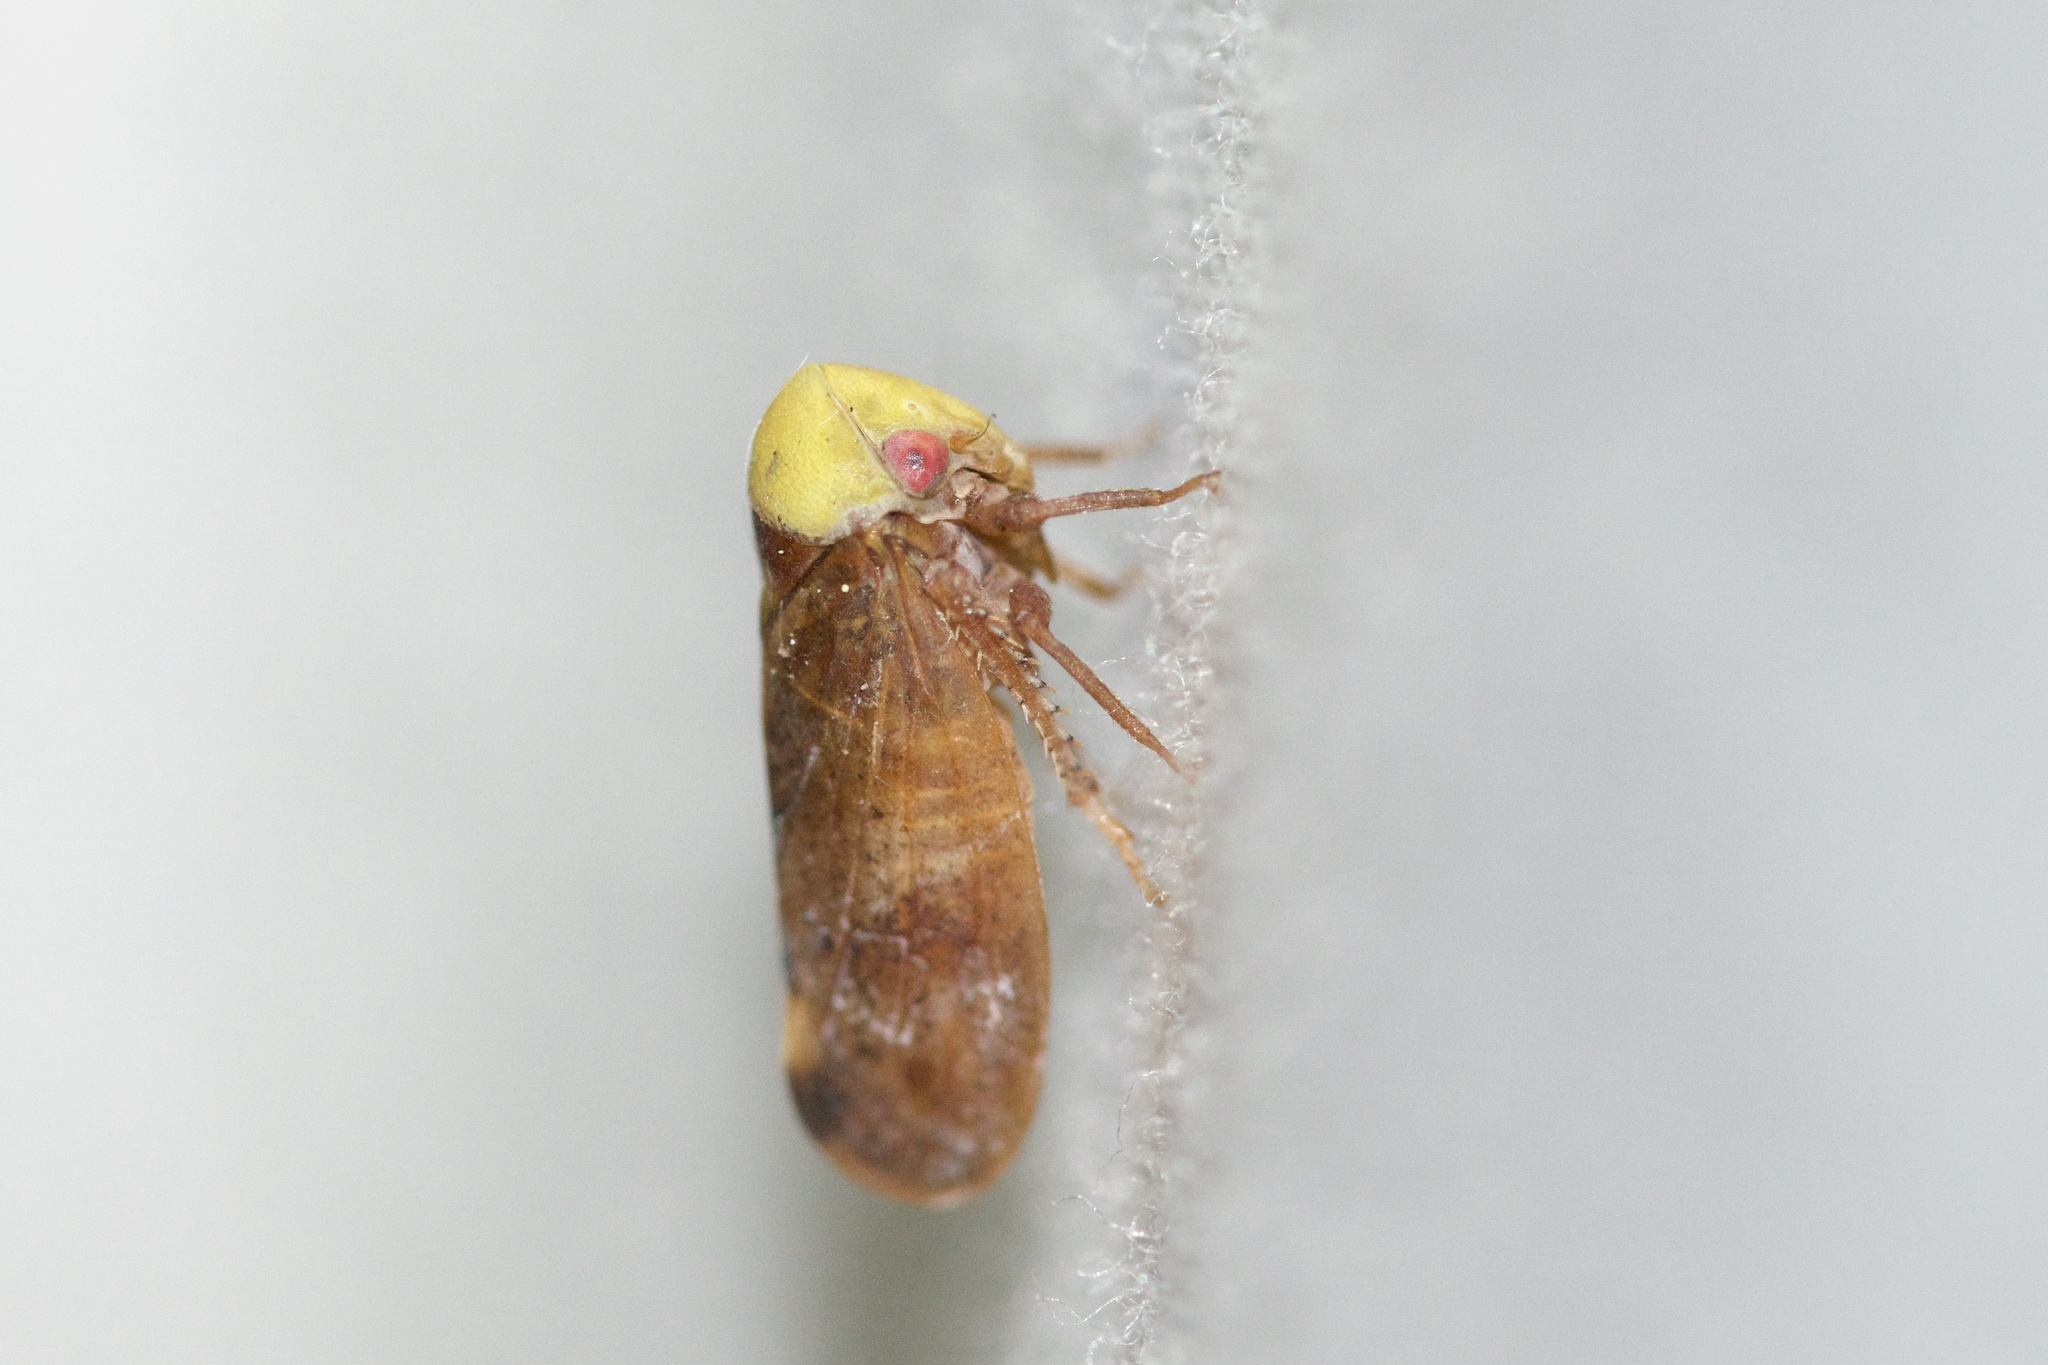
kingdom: Animalia
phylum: Arthropoda
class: Insecta
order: Hemiptera
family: Cicadellidae
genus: Pediopsis
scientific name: Pediopsis tiliae
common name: Leafhopper
